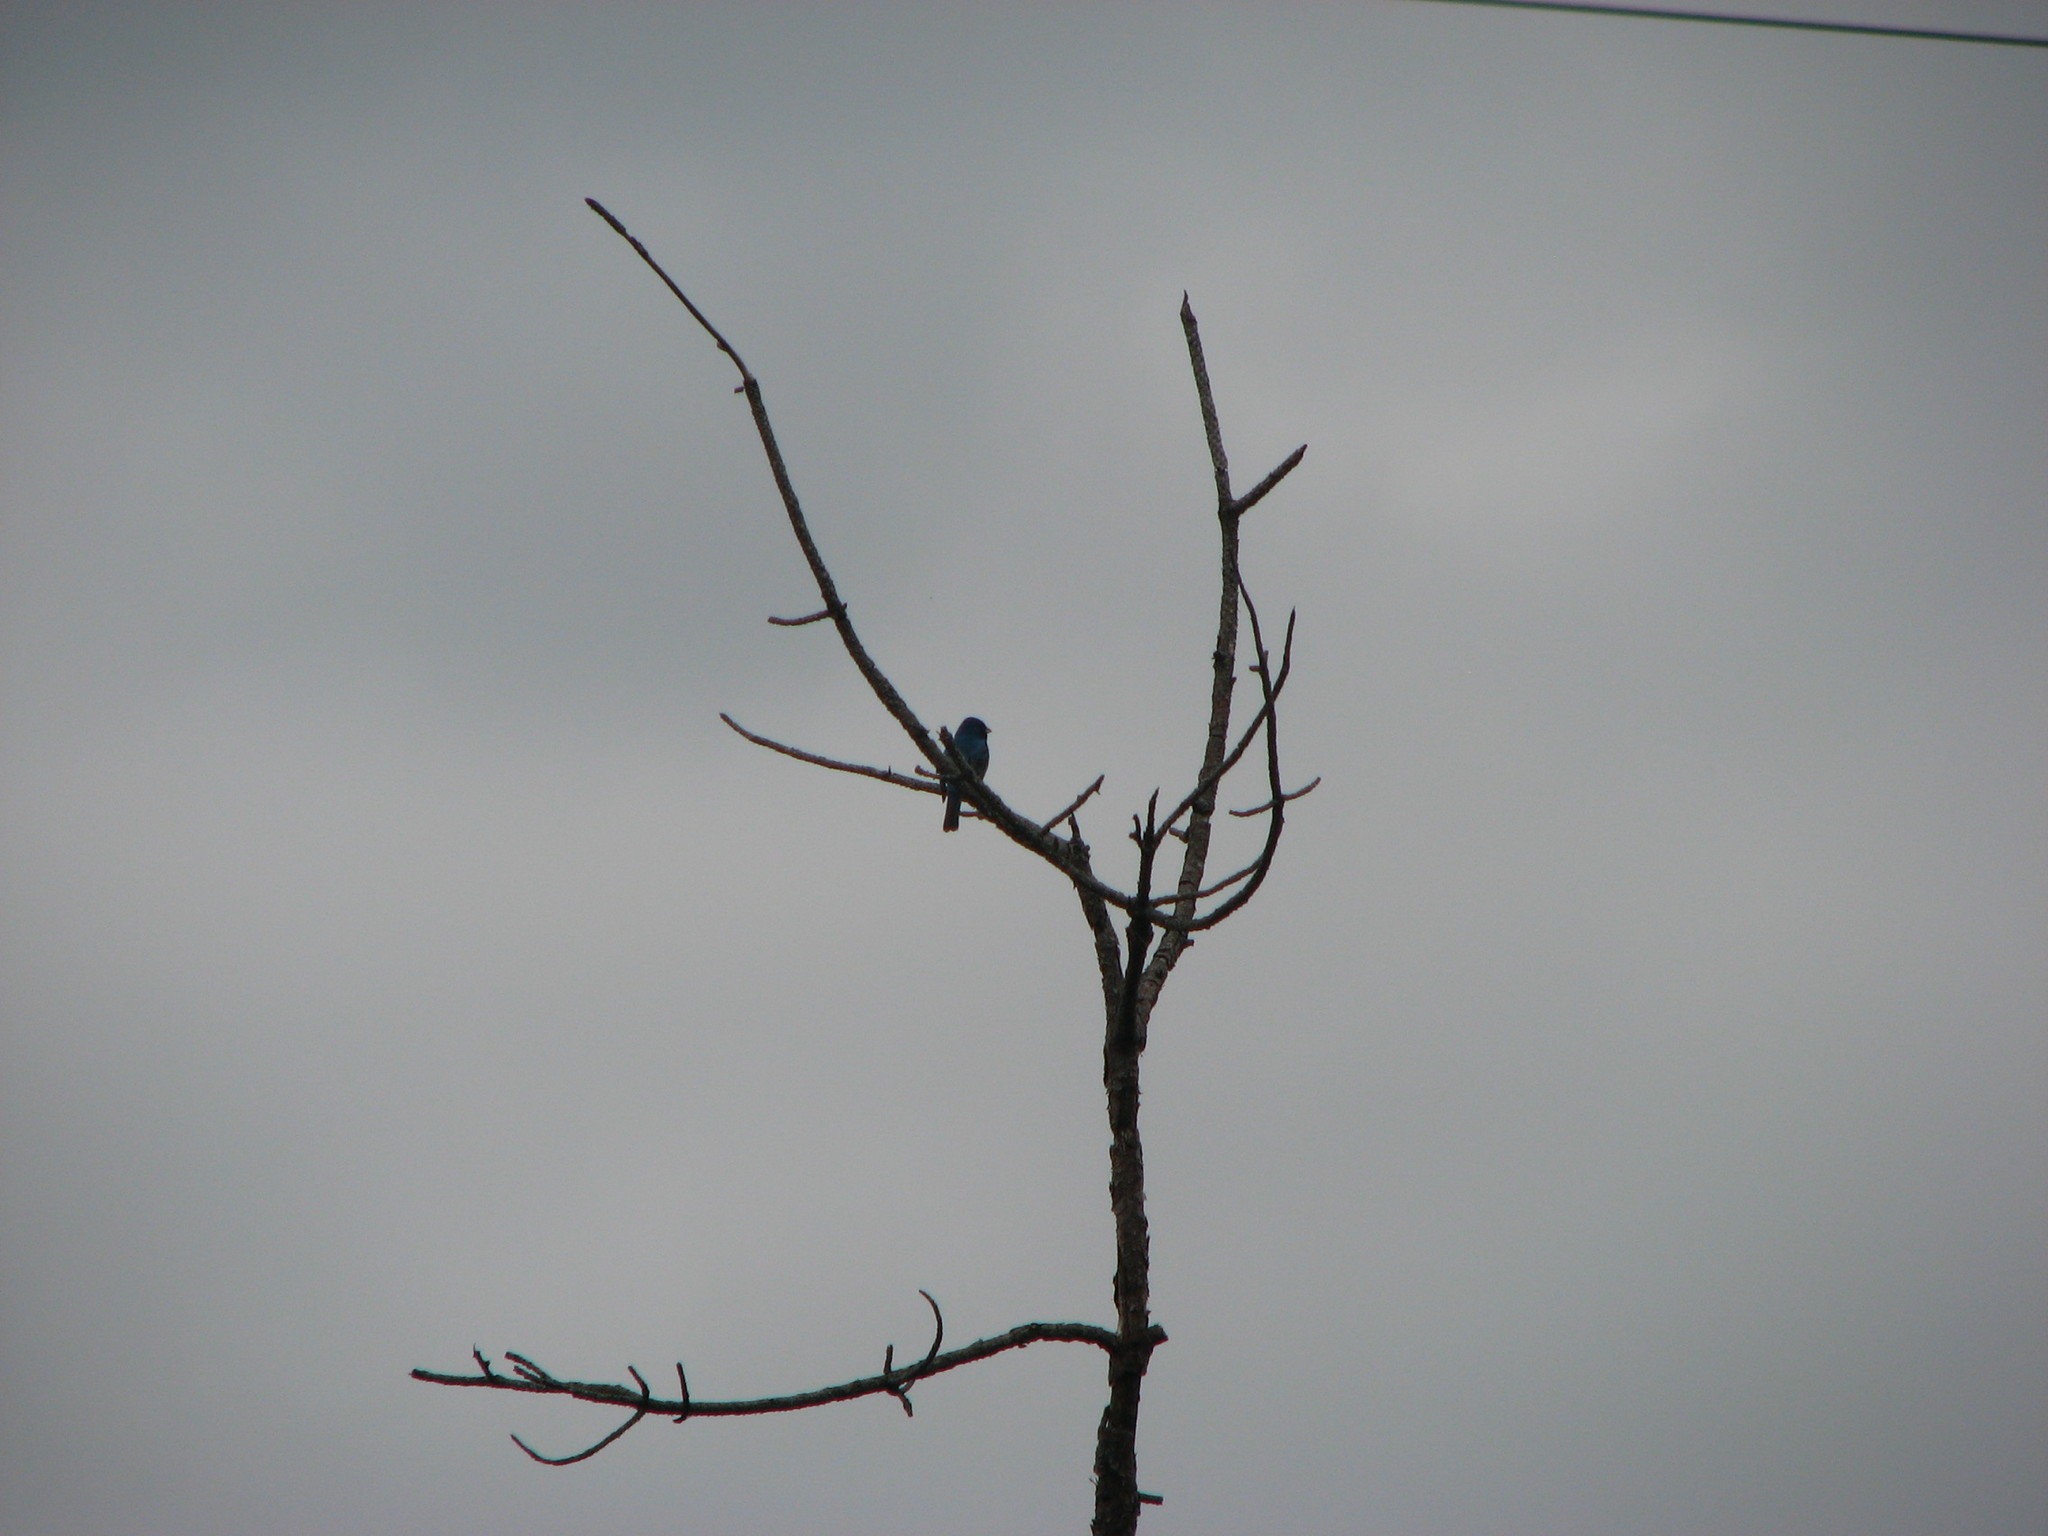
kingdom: Animalia
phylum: Chordata
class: Aves
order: Passeriformes
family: Cardinalidae
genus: Passerina
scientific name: Passerina cyanea
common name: Indigo bunting
